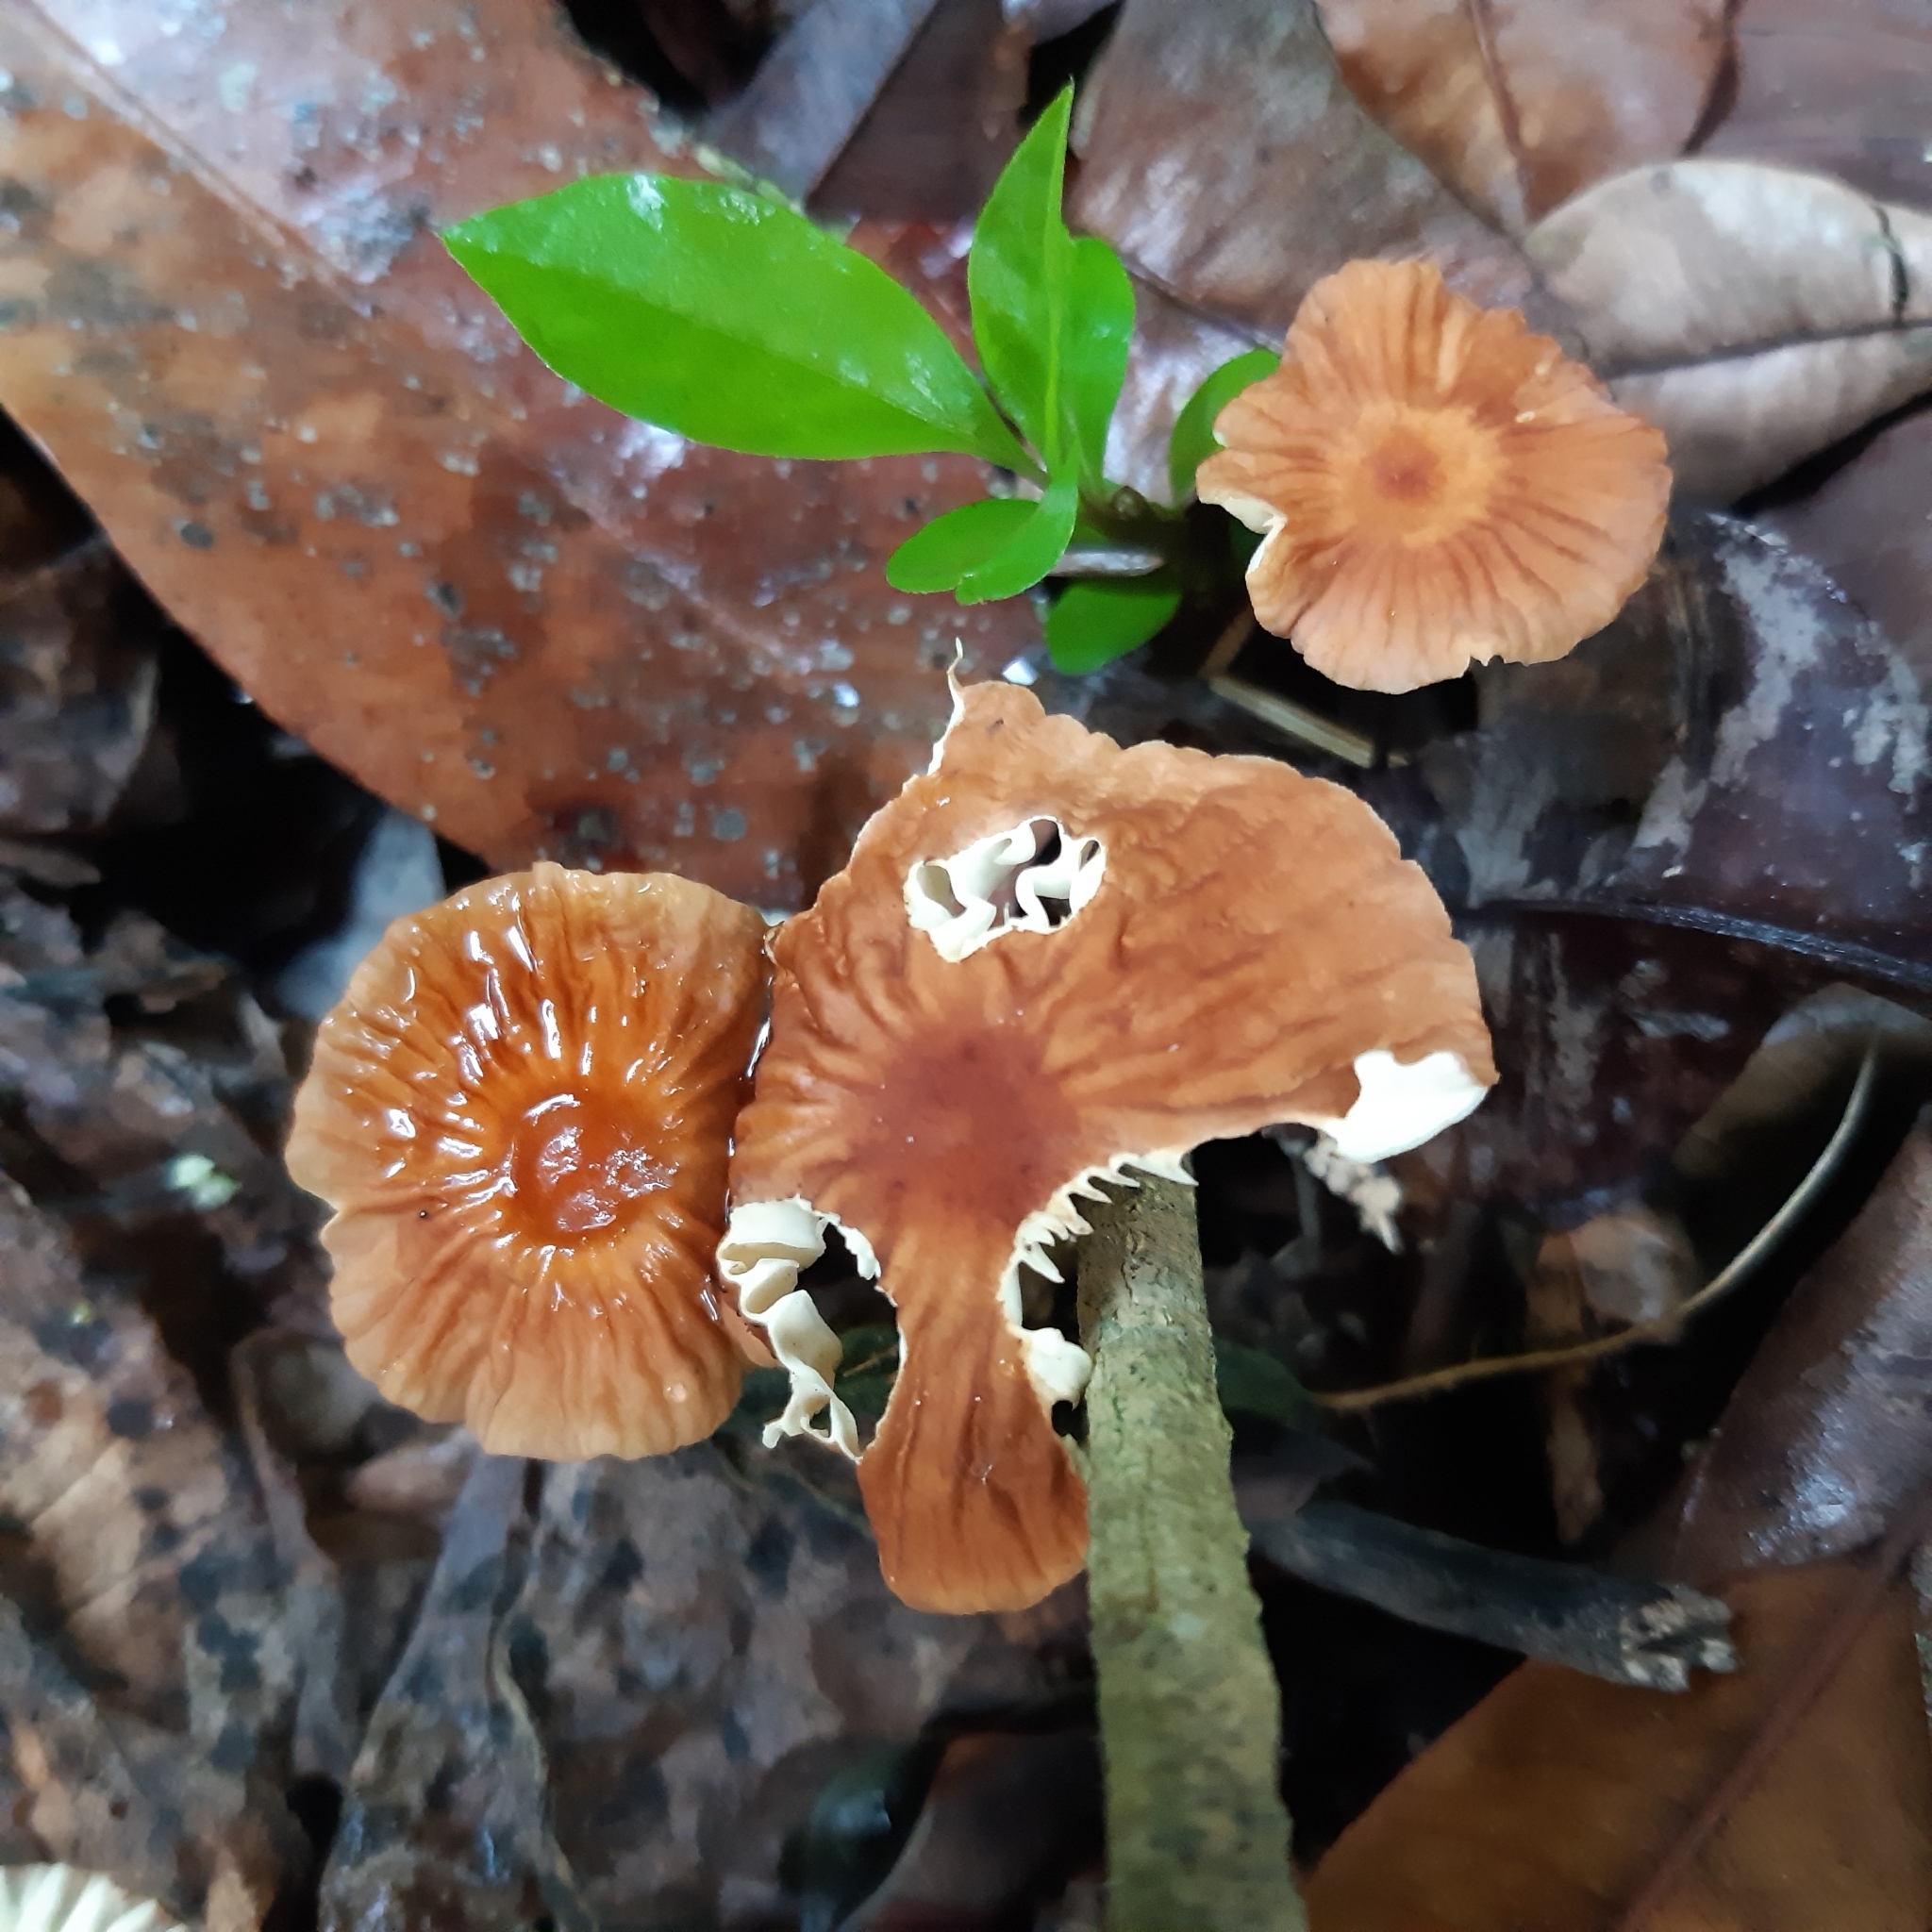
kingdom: Fungi
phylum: Basidiomycota
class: Agaricomycetes
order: Agaricales
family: Marasmiaceae
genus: Marasmius
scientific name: Marasmius perlongispermus
